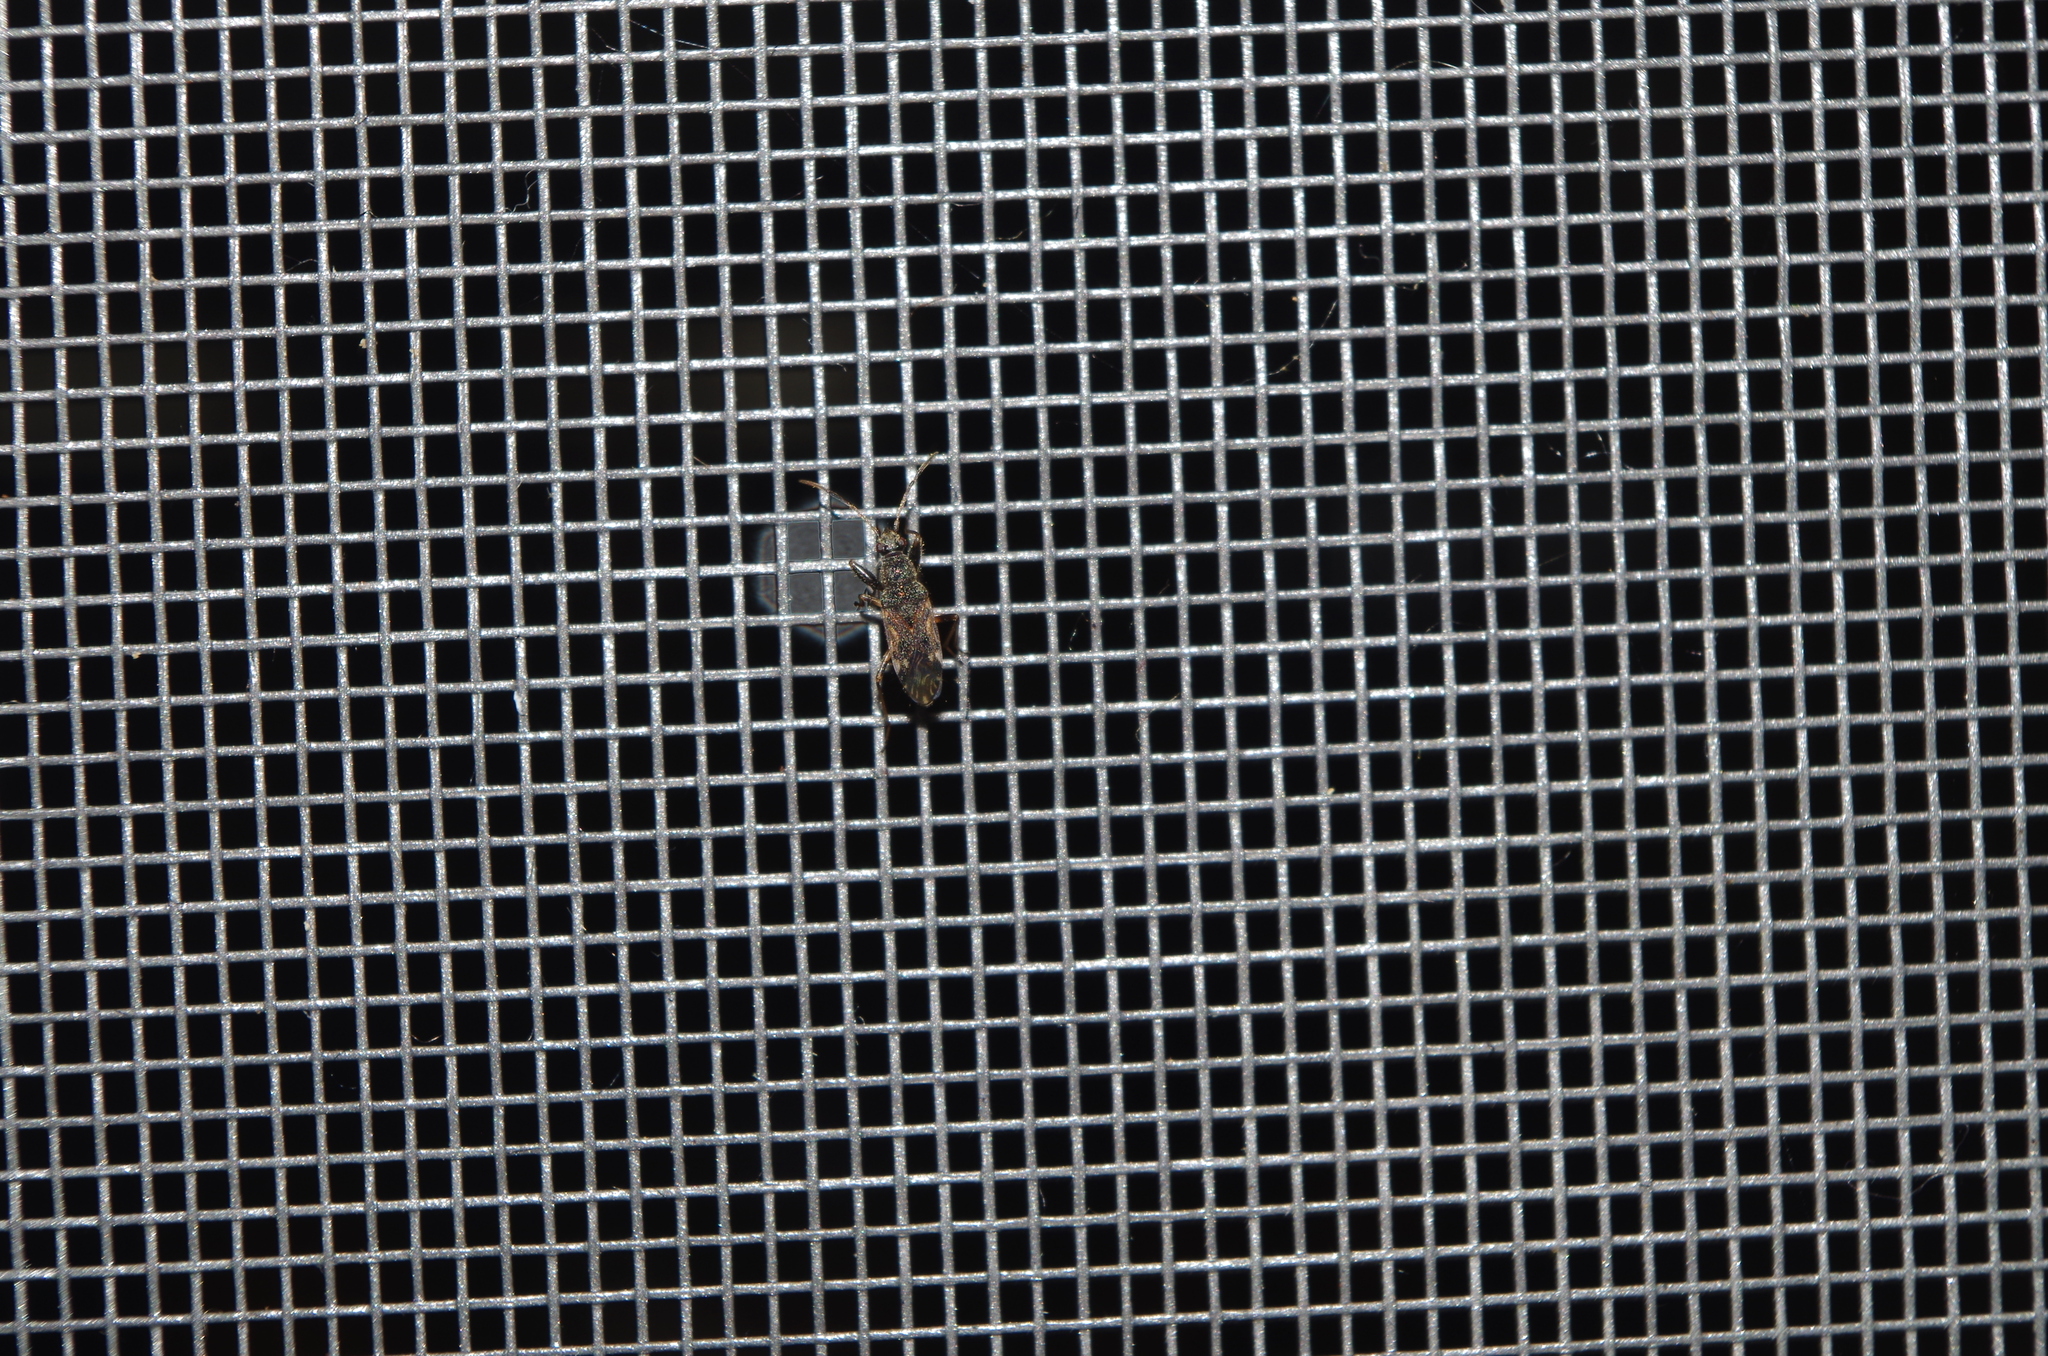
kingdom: Animalia
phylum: Arthropoda
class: Insecta
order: Hemiptera
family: Rhyparochromidae
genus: Horridipamera
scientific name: Horridipamera nietneri
